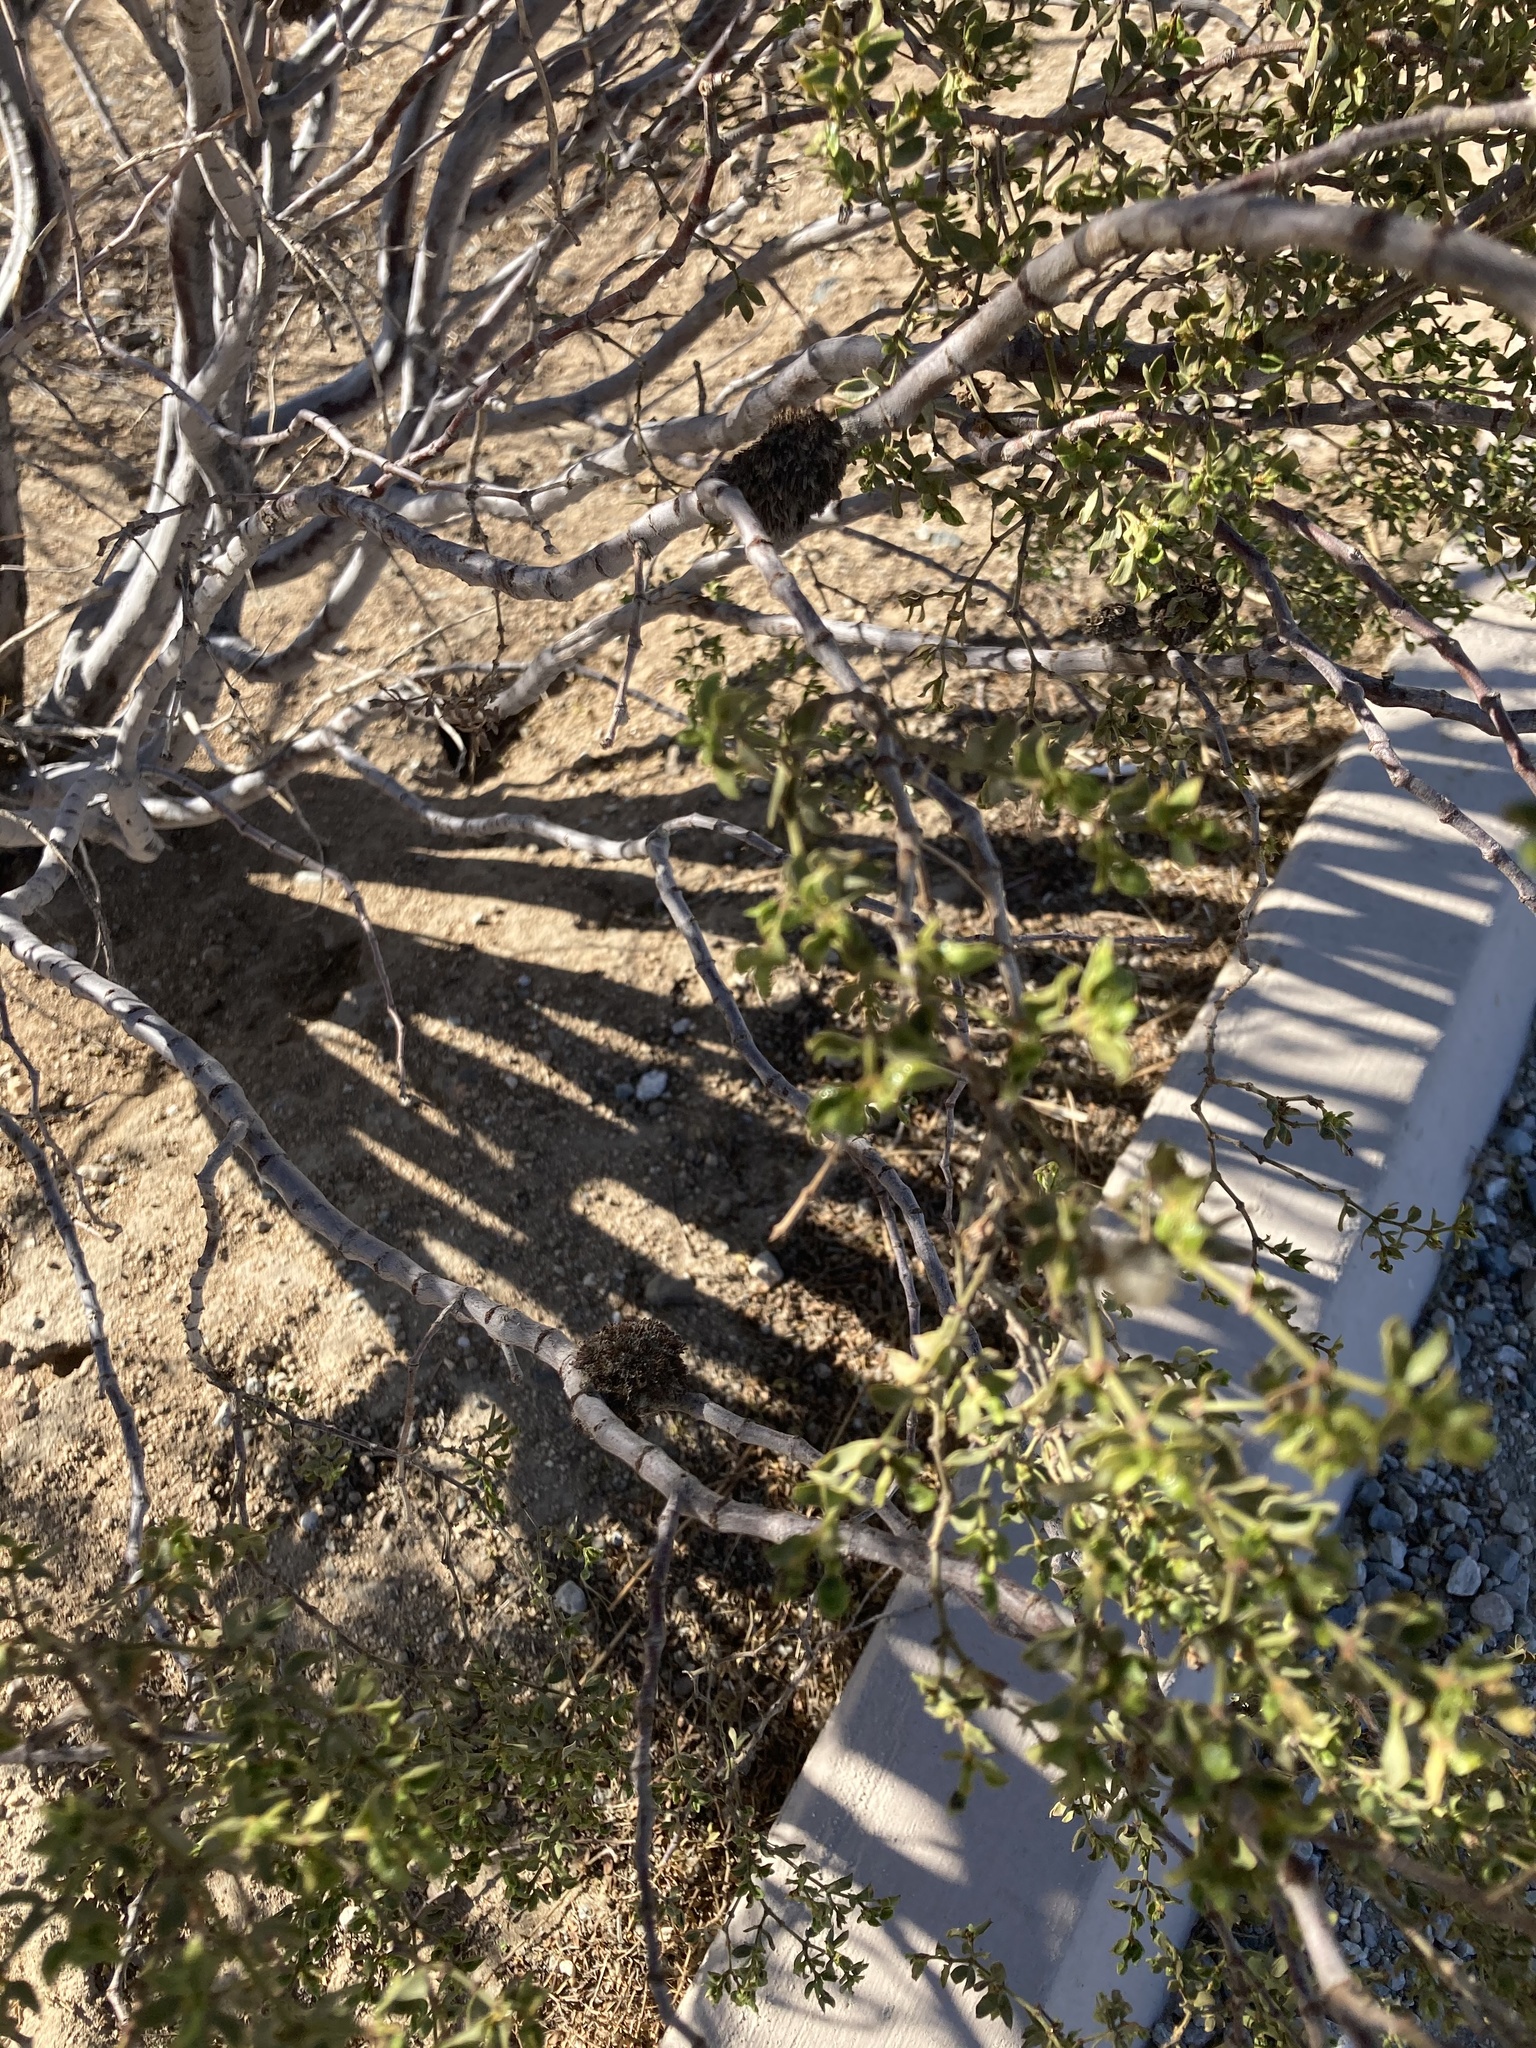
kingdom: Plantae
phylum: Tracheophyta
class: Magnoliopsida
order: Zygophyllales
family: Zygophyllaceae
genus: Larrea
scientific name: Larrea tridentata
